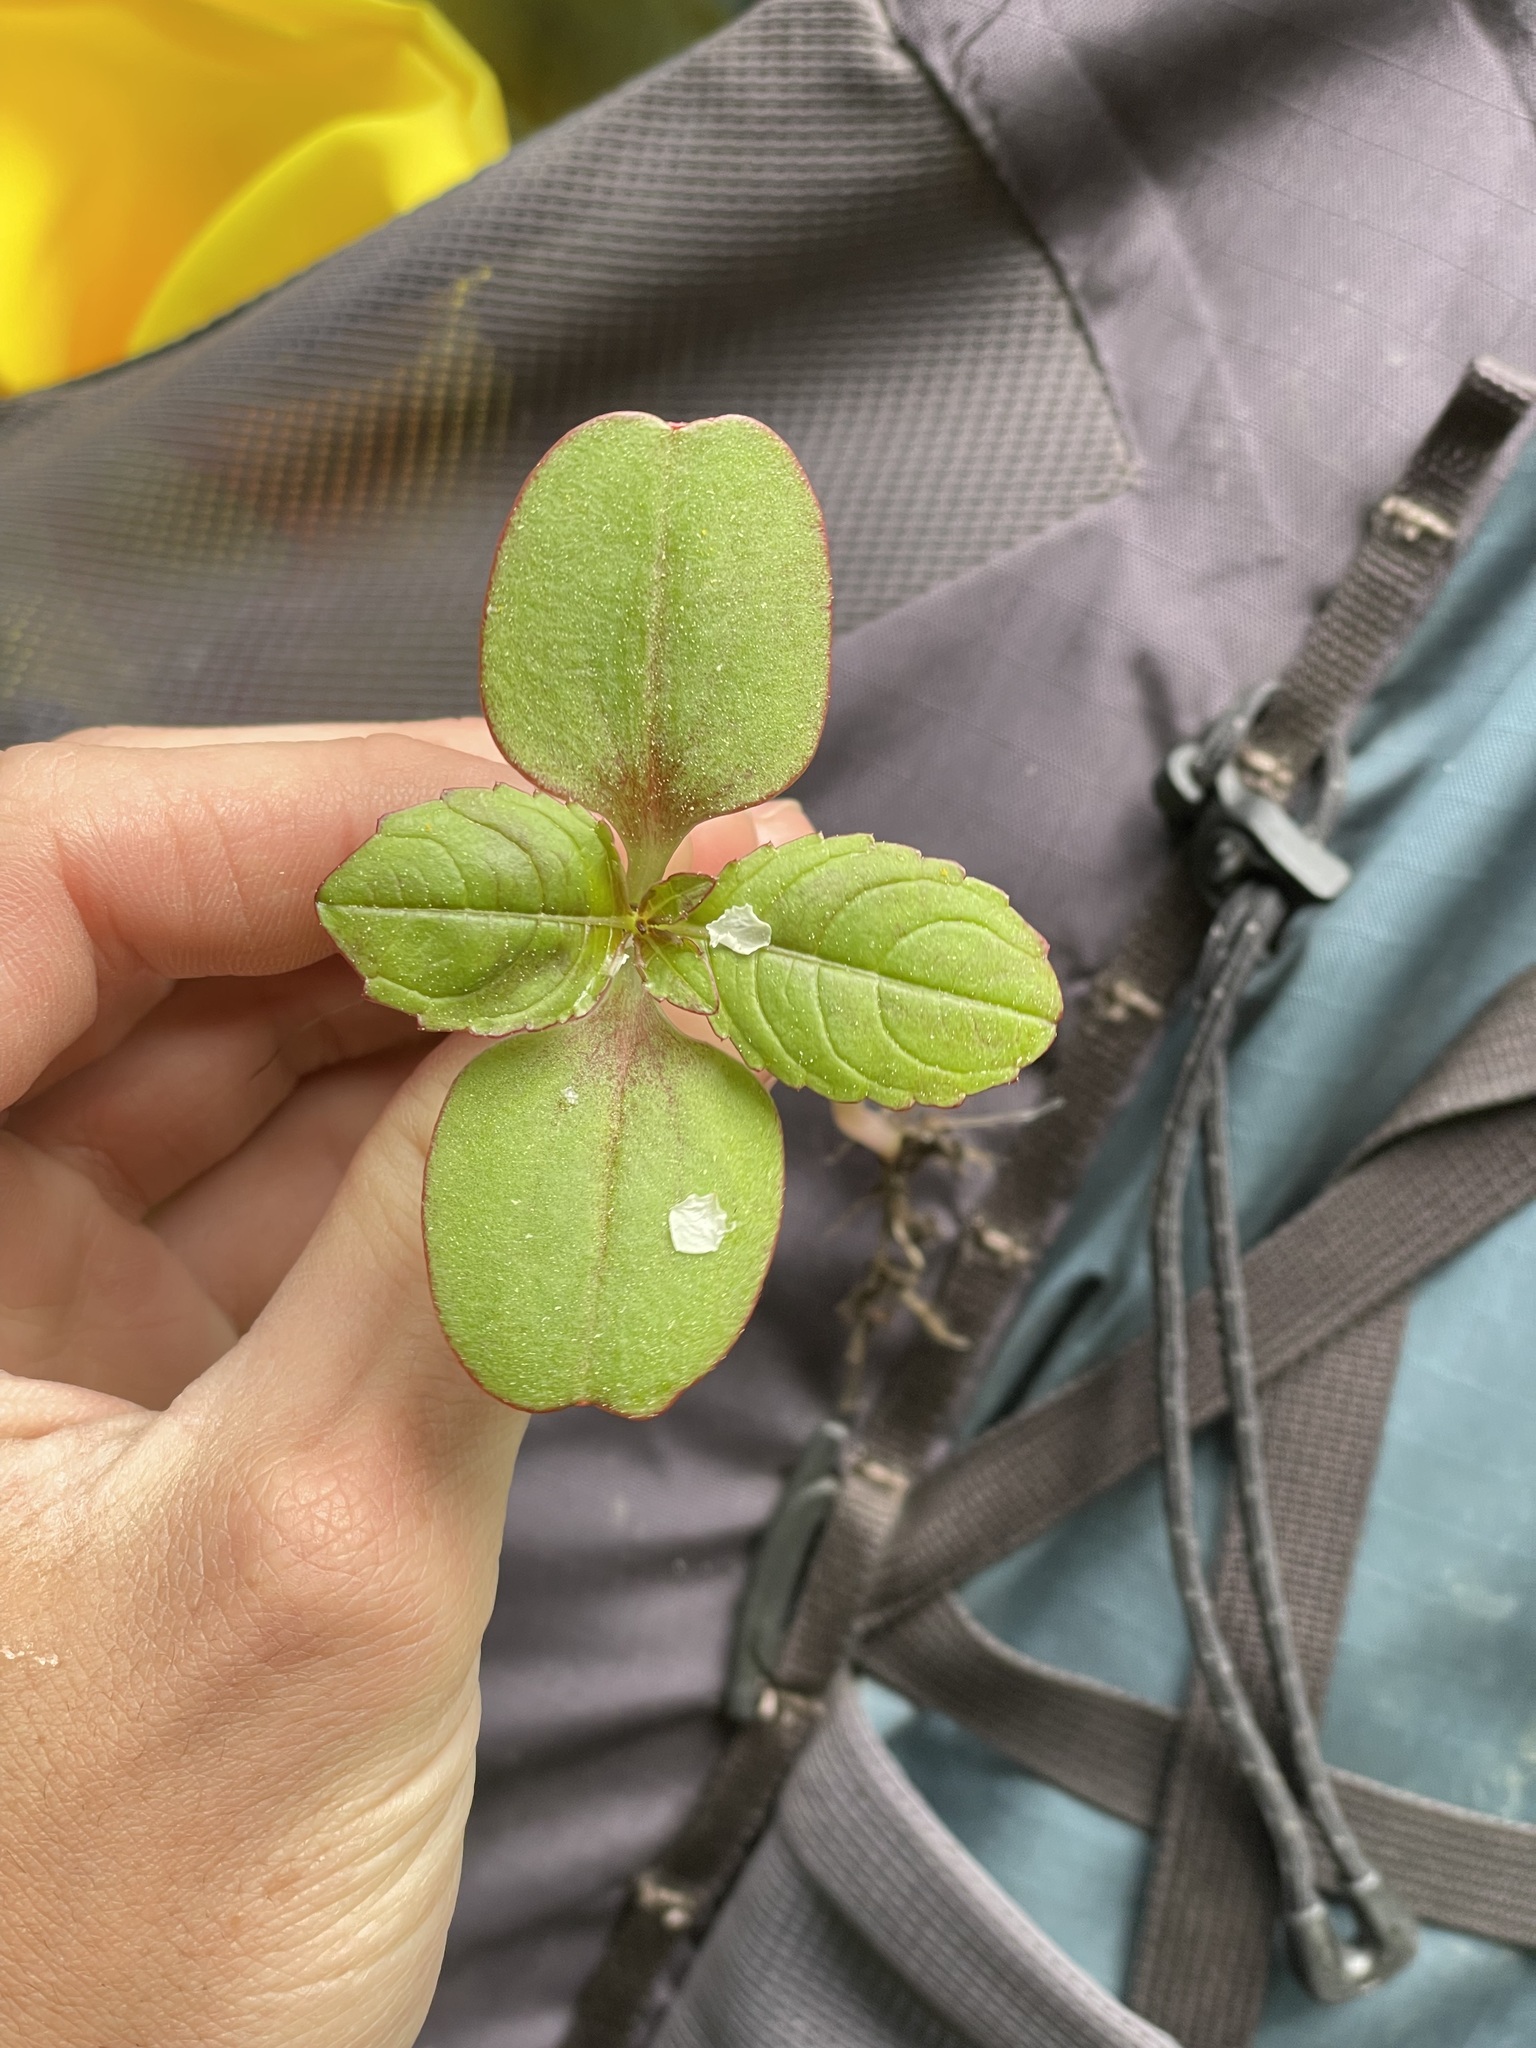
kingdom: Plantae
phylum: Tracheophyta
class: Magnoliopsida
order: Ericales
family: Balsaminaceae
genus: Impatiens
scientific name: Impatiens glandulifera
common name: Himalayan balsam
